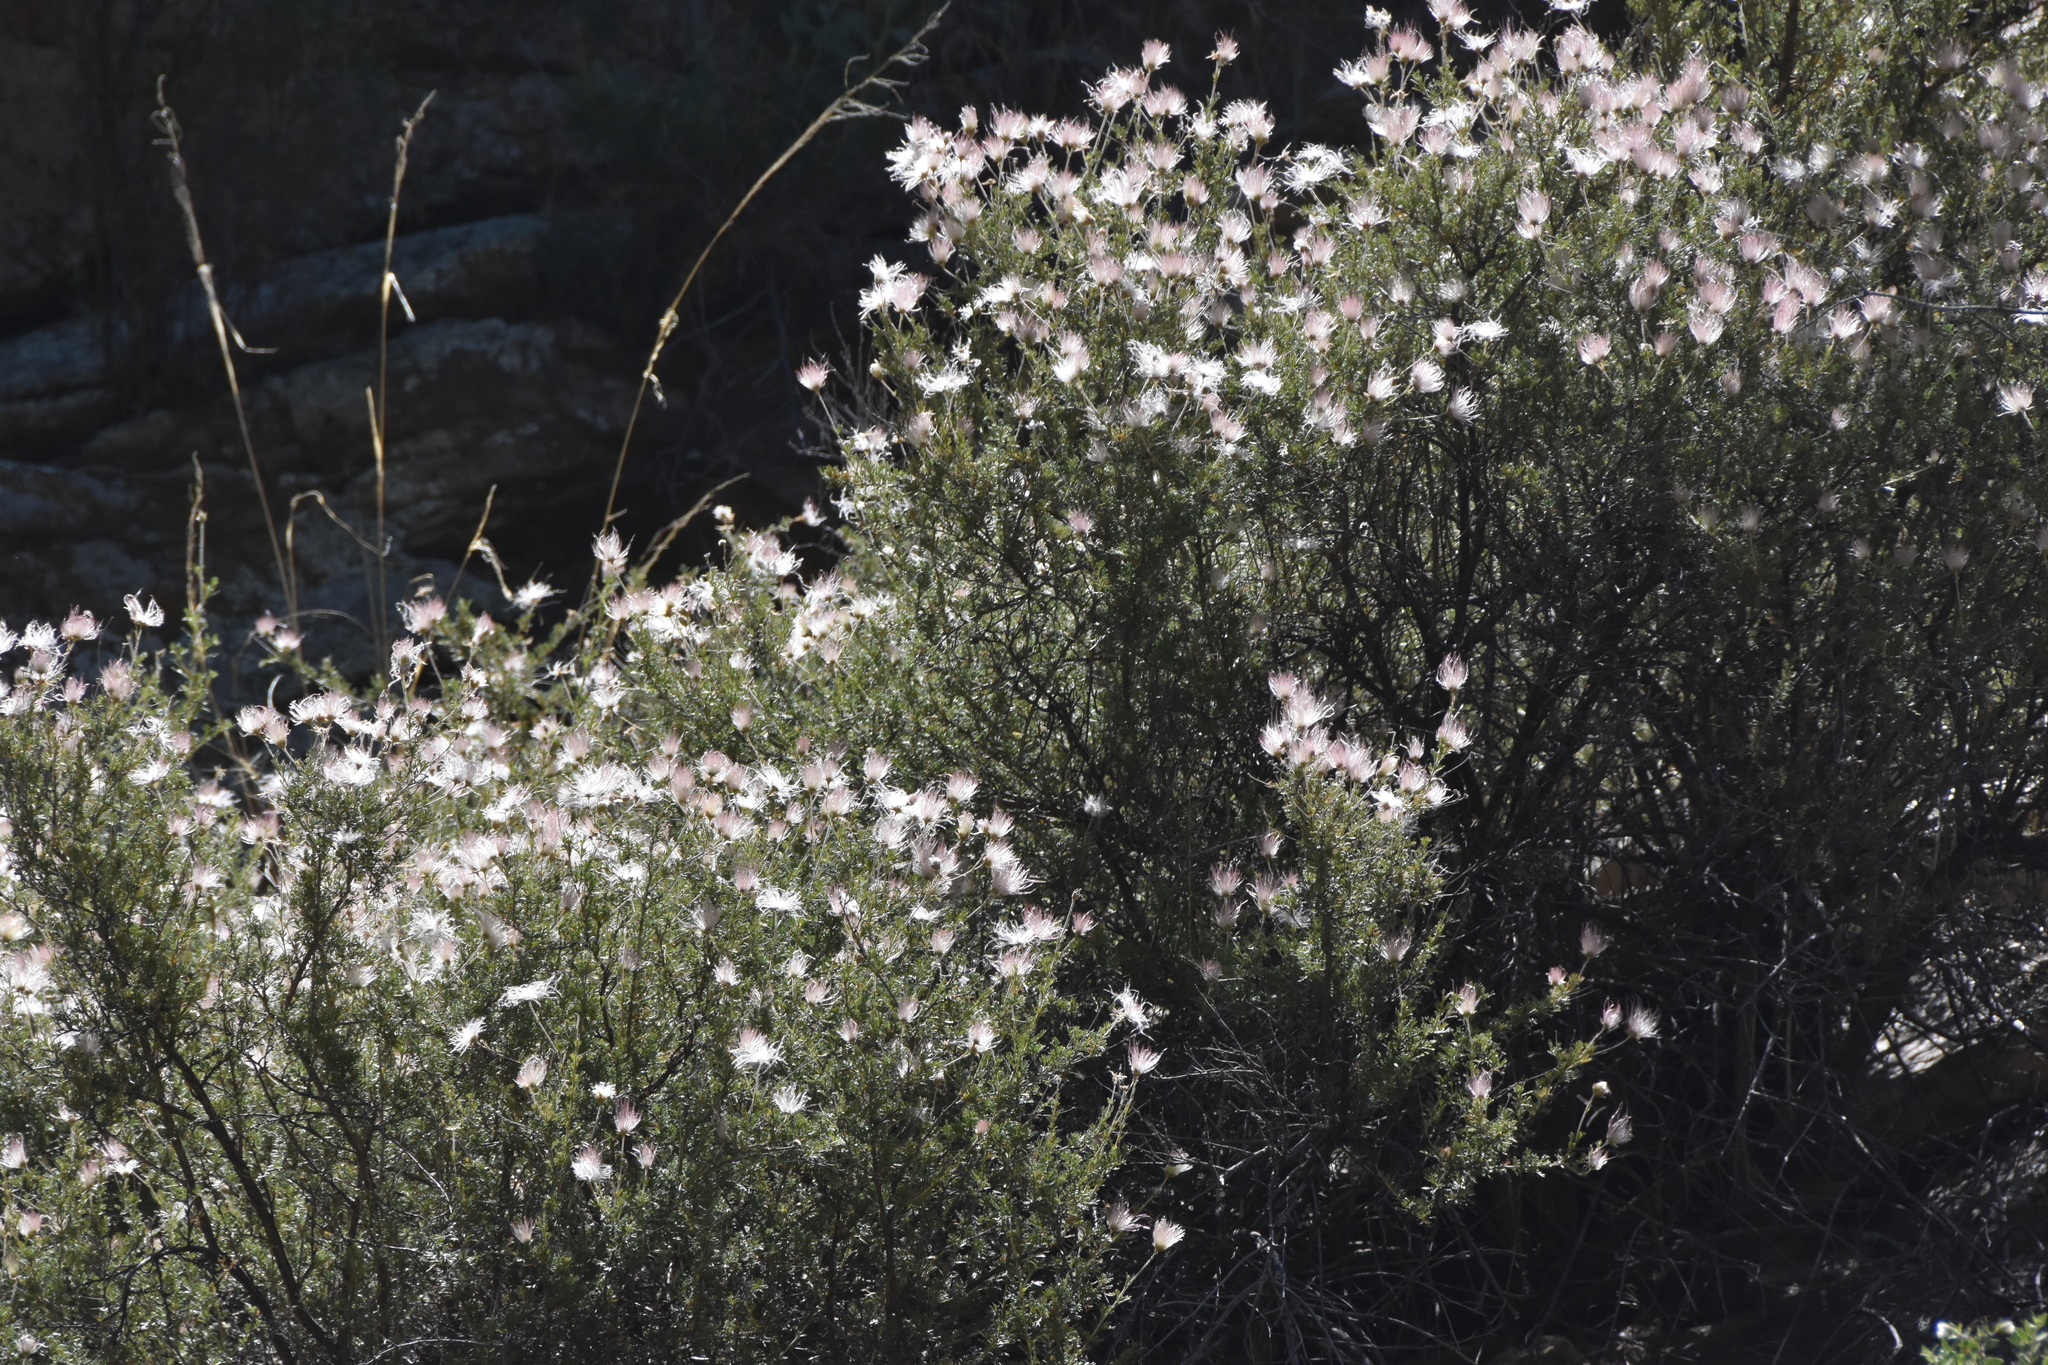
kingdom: Plantae
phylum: Tracheophyta
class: Magnoliopsida
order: Rosales
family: Rosaceae
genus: Fallugia
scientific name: Fallugia paradoxa
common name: Apache-plume
